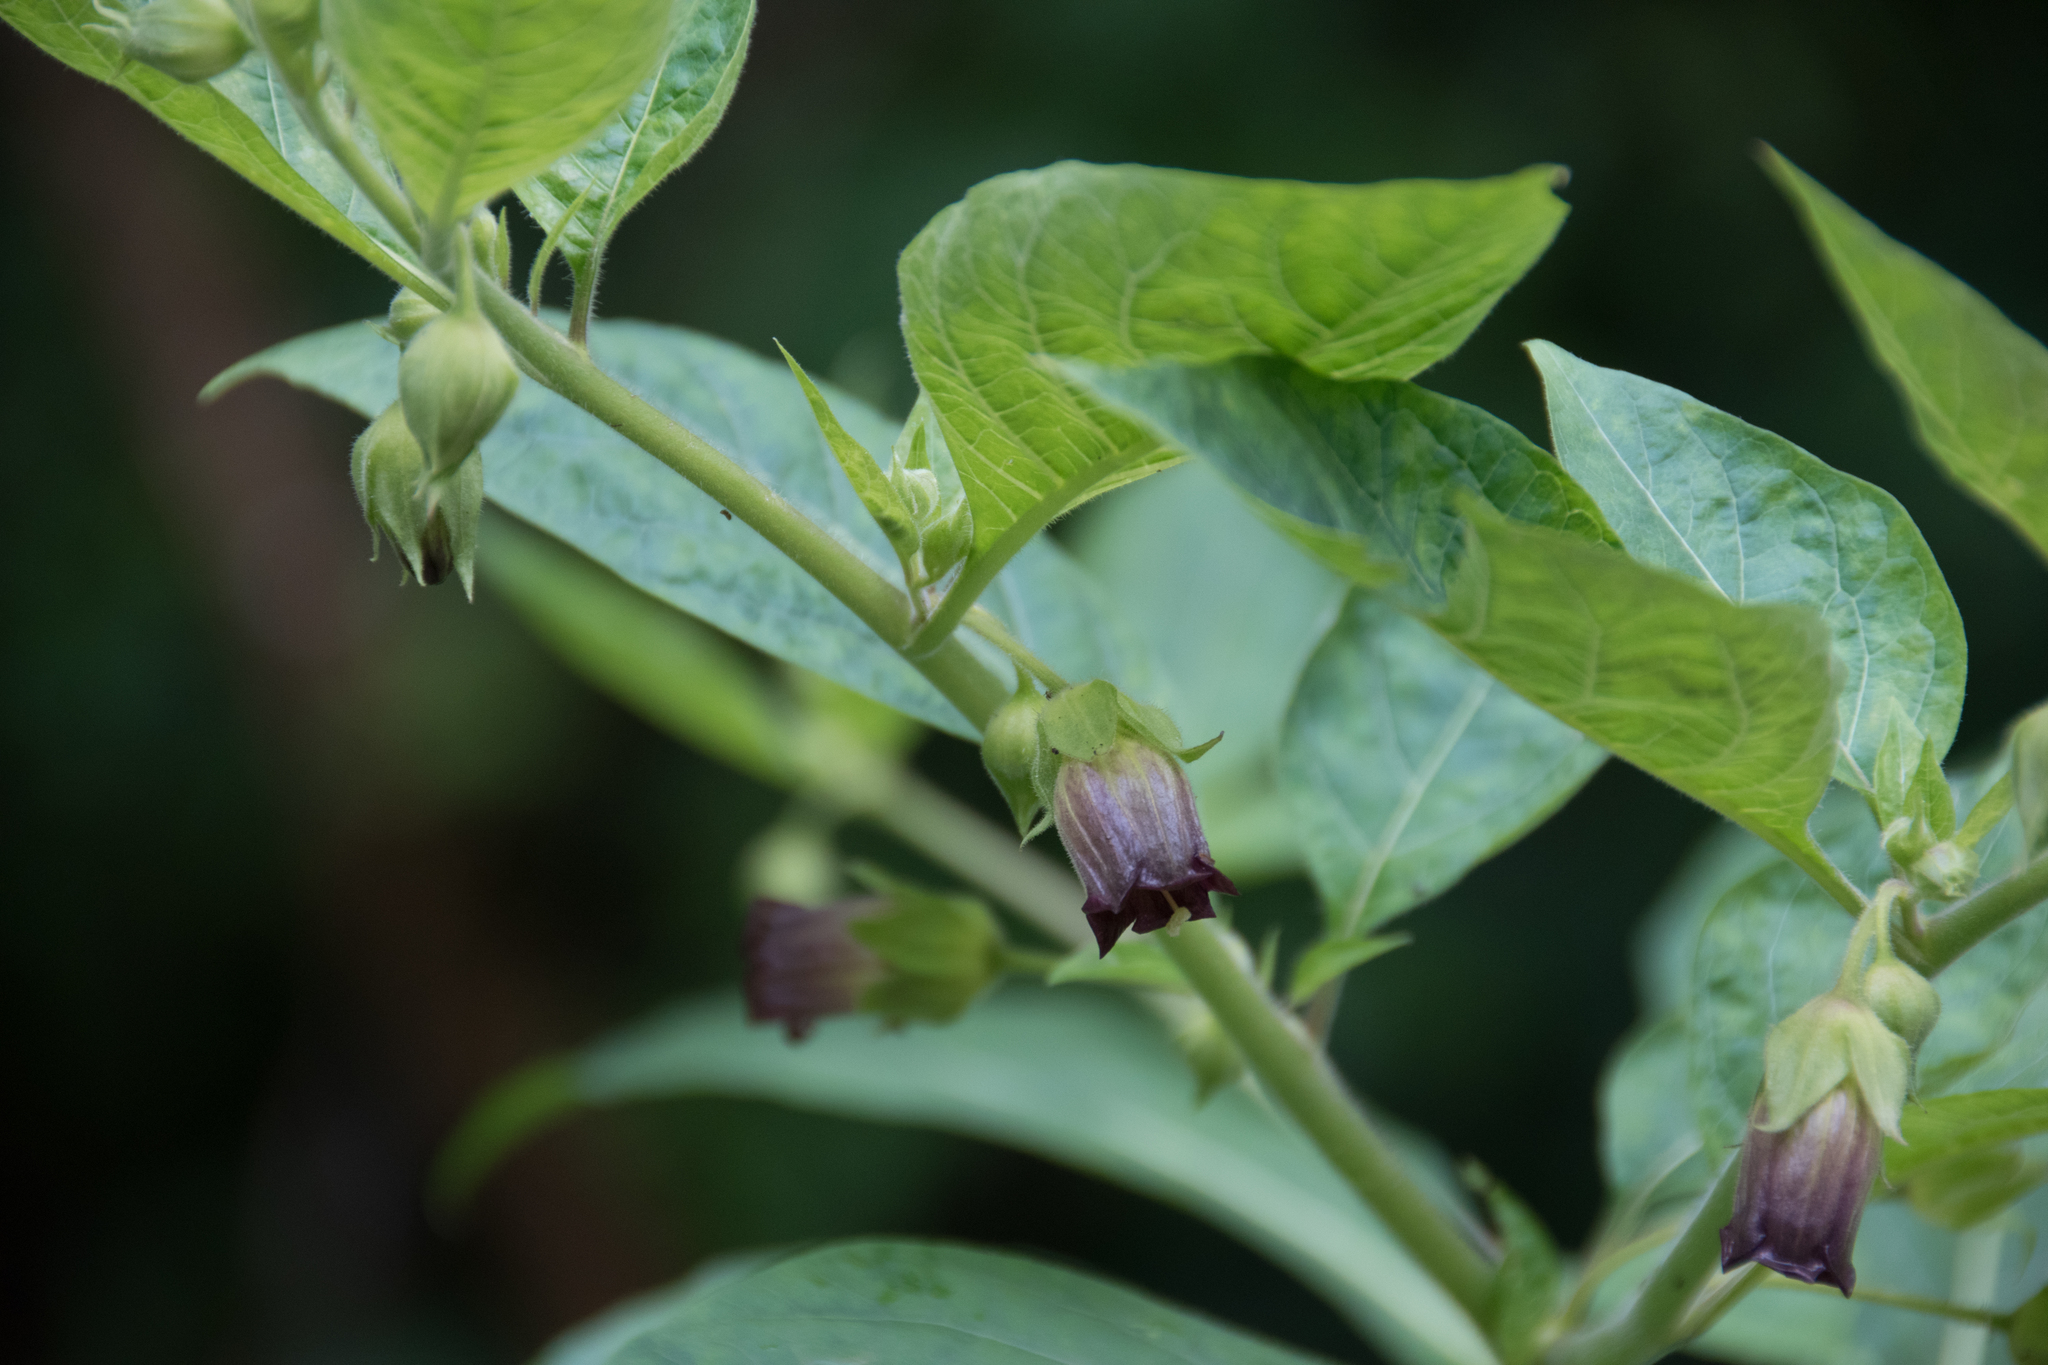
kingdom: Plantae
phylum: Tracheophyta
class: Magnoliopsida
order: Solanales
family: Solanaceae
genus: Atropa
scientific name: Atropa belladonna
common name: Deadly nightshade
